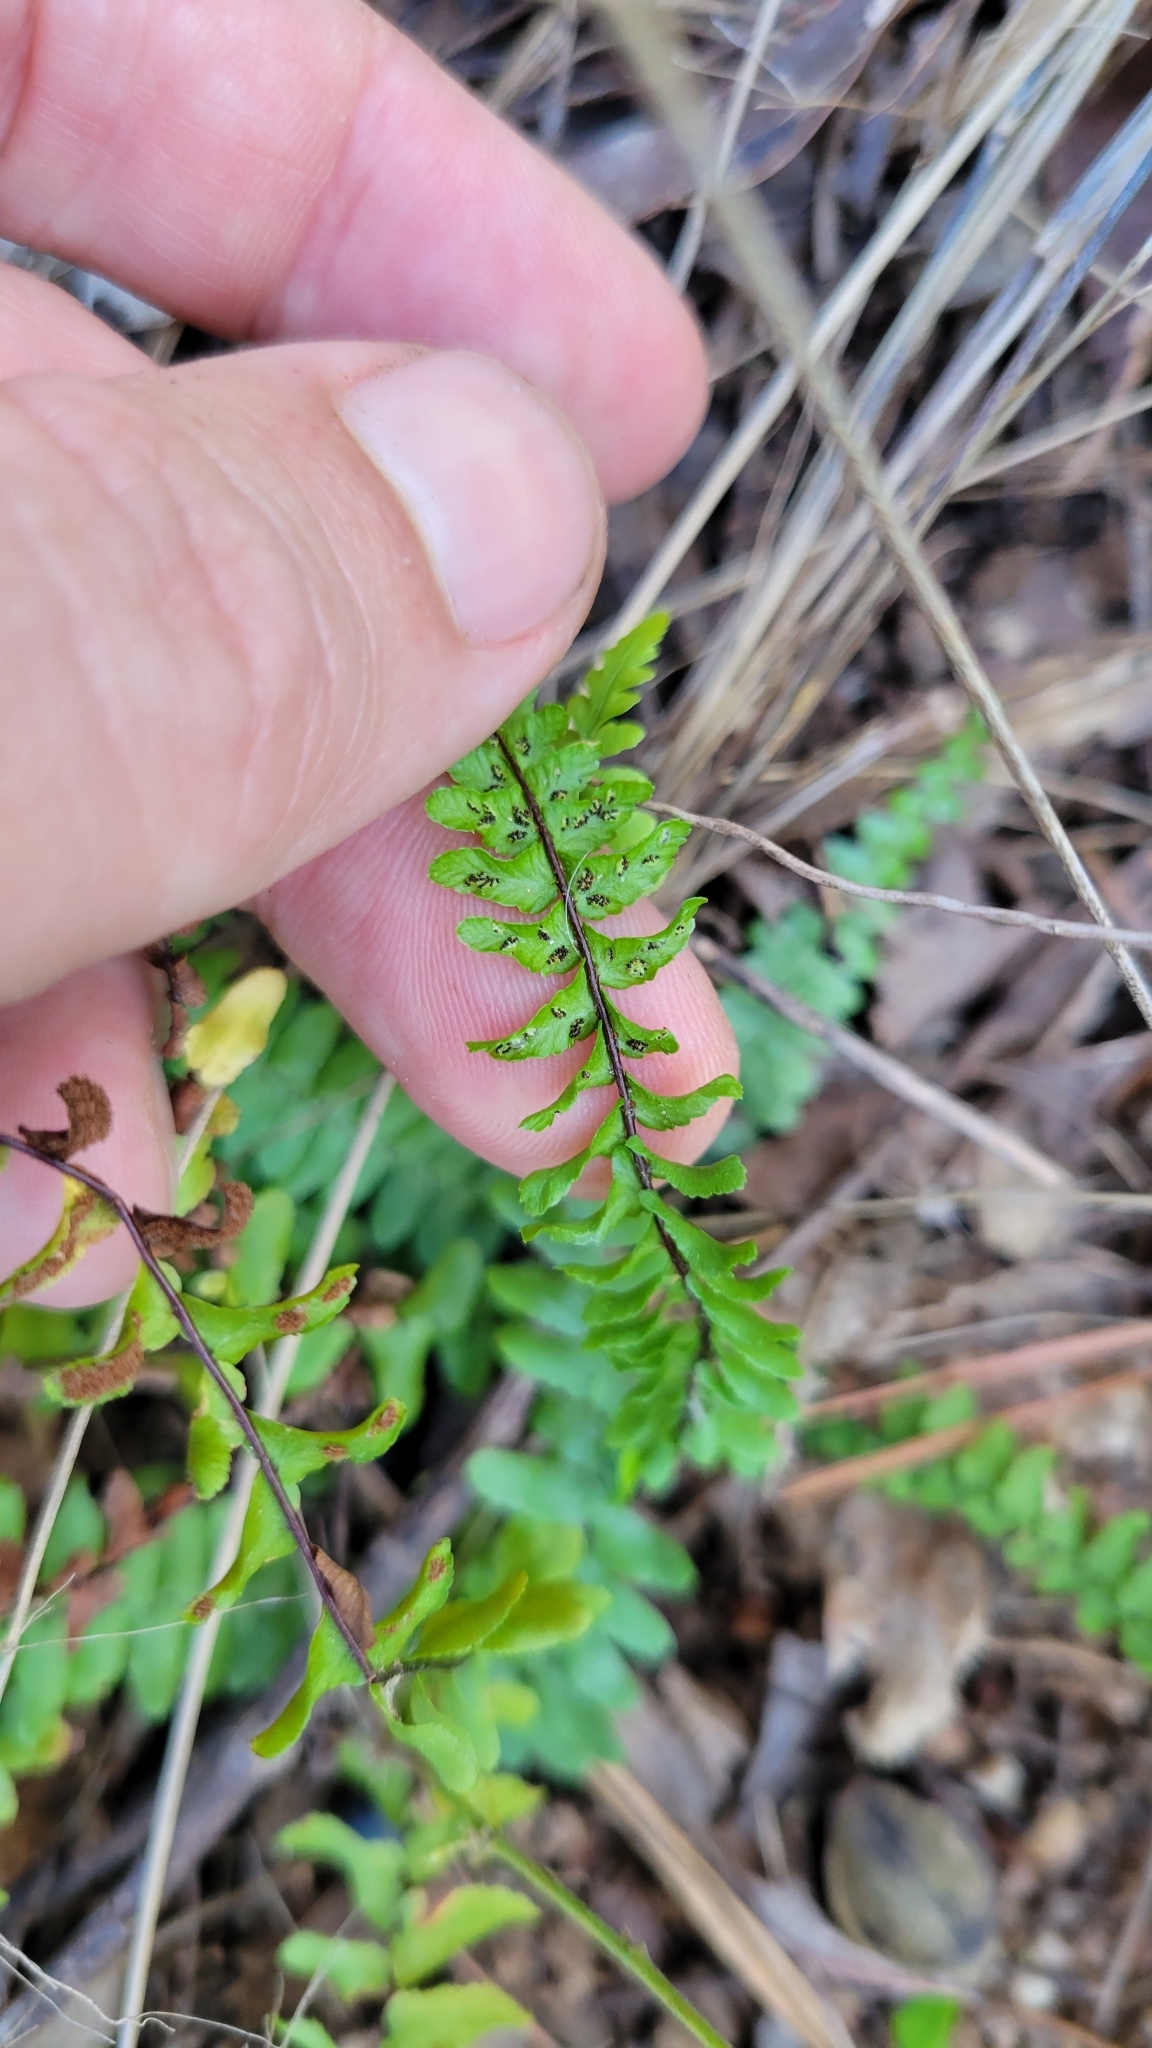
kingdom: Plantae
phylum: Tracheophyta
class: Polypodiopsida
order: Polypodiales
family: Aspleniaceae
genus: Asplenium
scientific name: Asplenium platyneuron
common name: Ebony spleenwort
